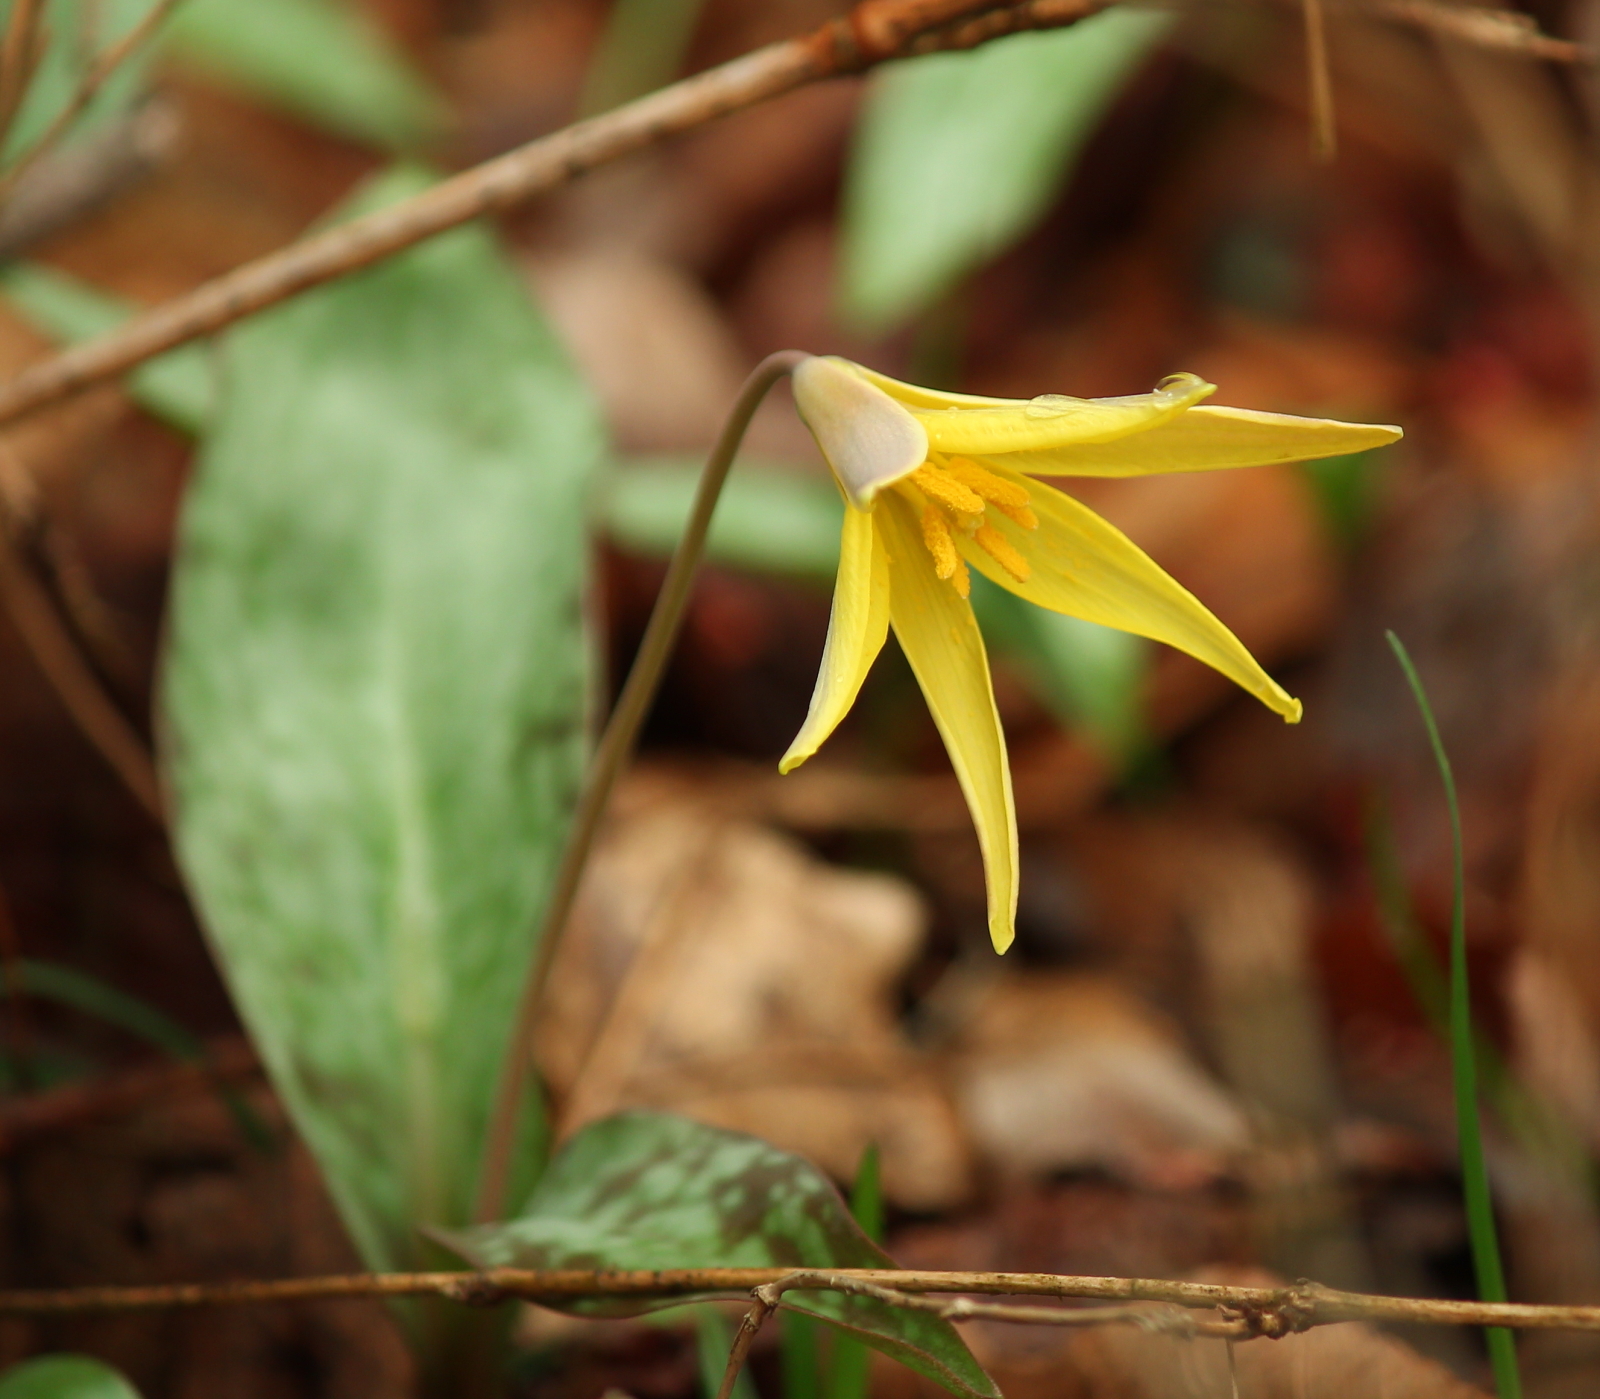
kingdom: Plantae
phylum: Tracheophyta
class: Liliopsida
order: Liliales
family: Liliaceae
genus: Erythronium
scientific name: Erythronium rostratum
